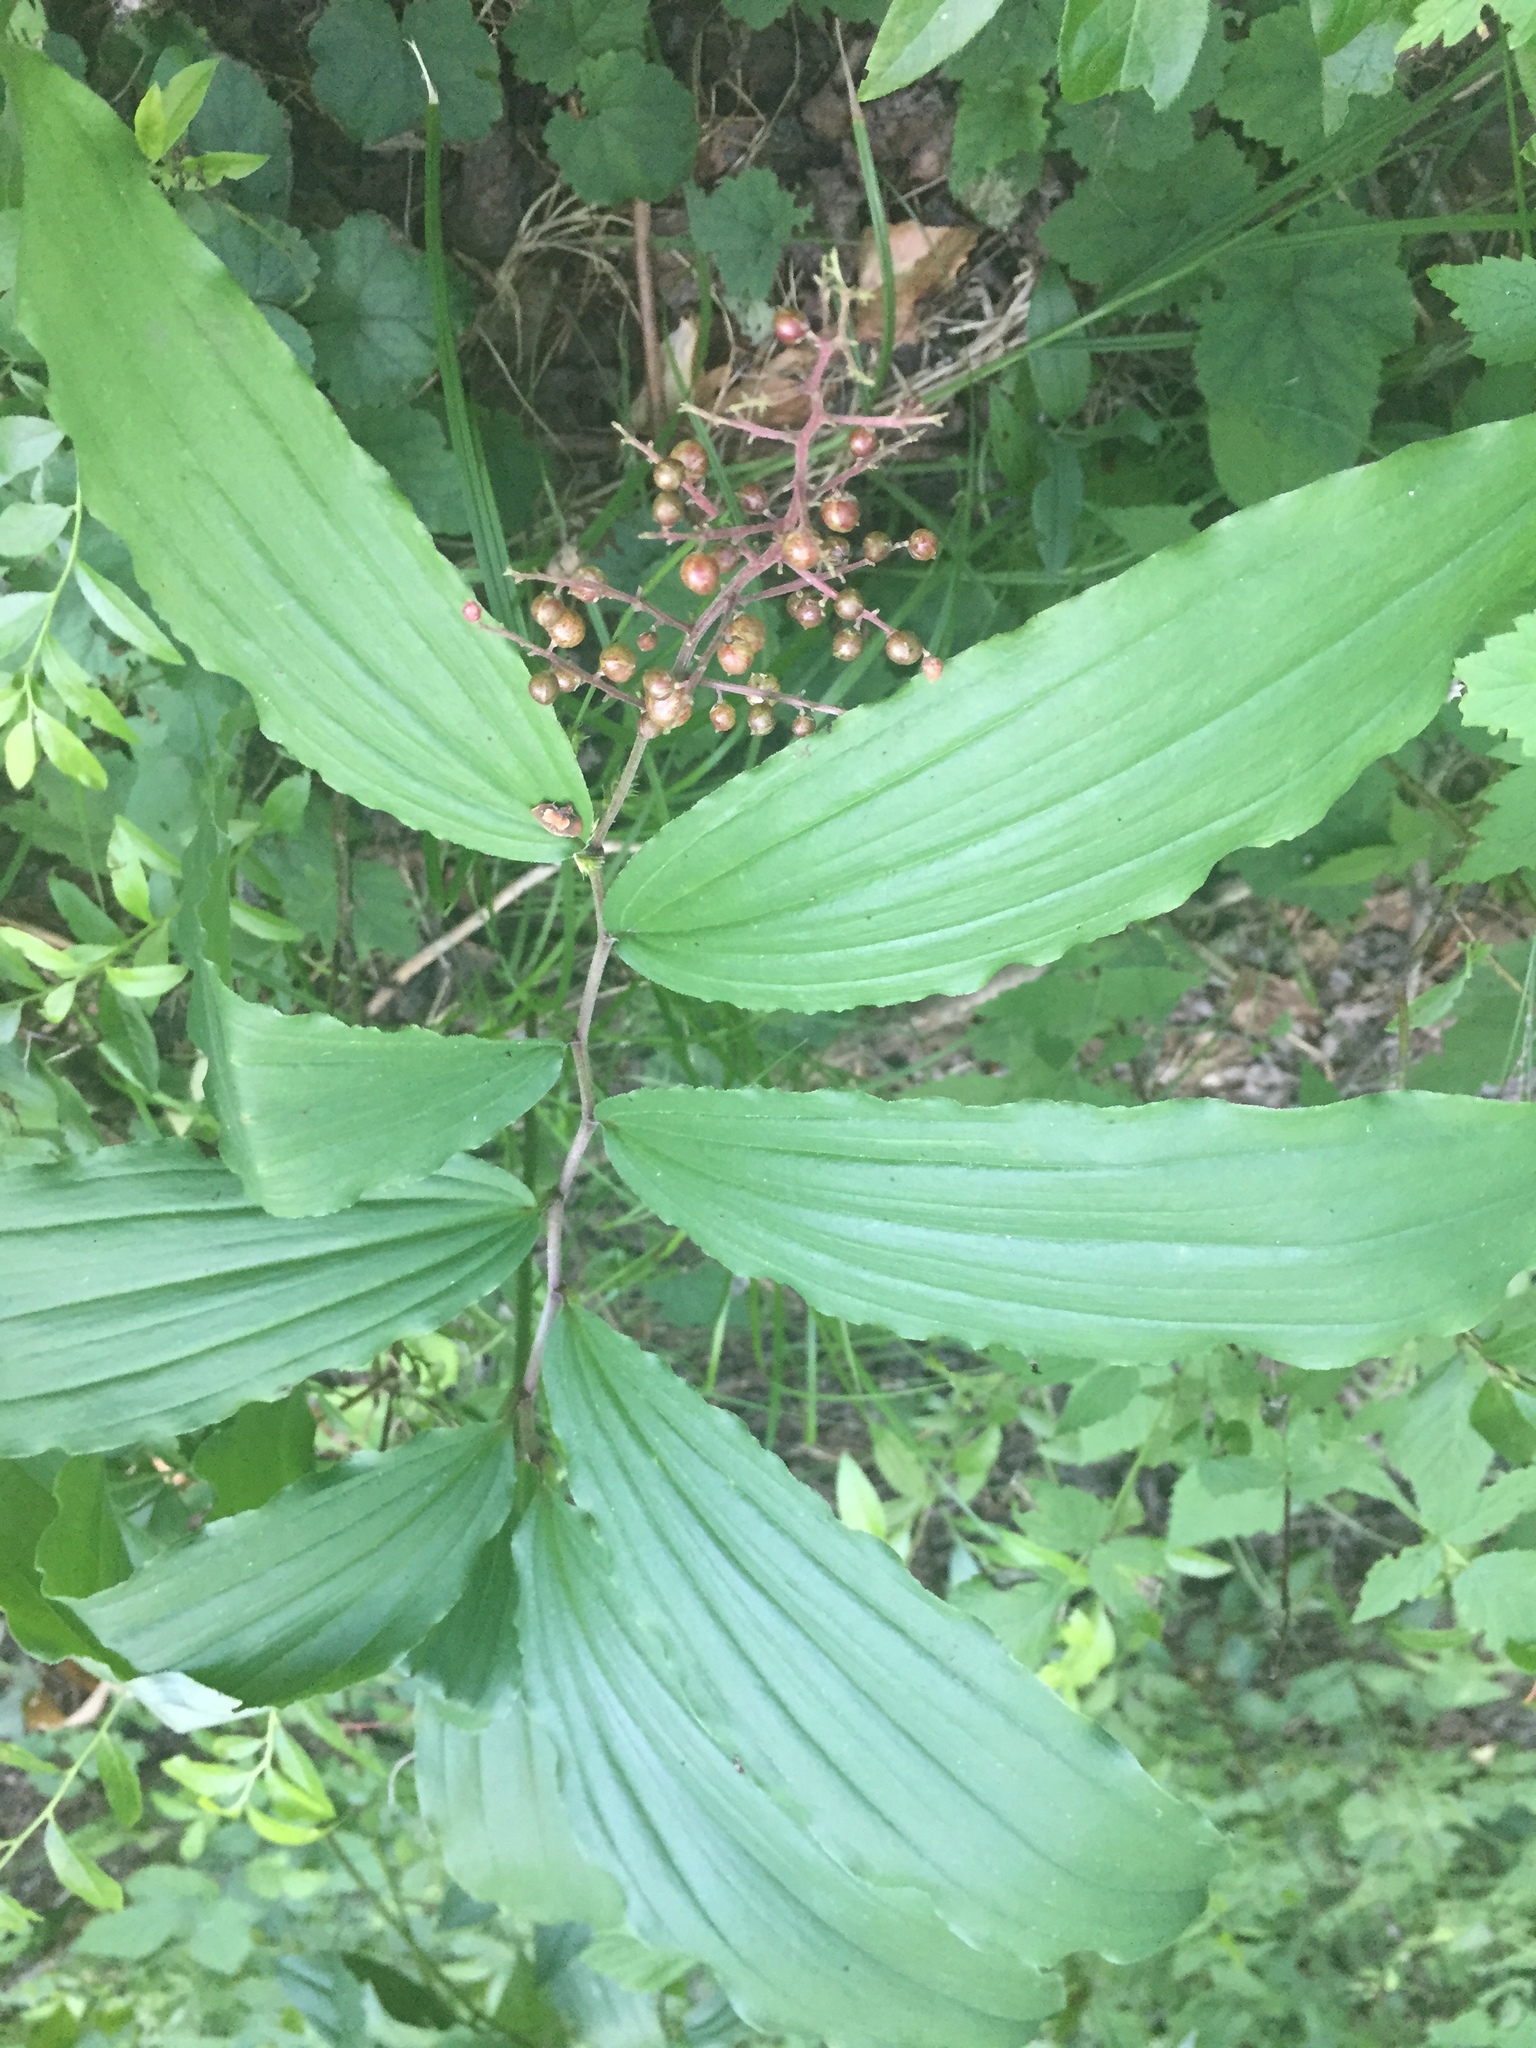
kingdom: Plantae
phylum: Tracheophyta
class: Liliopsida
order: Asparagales
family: Asparagaceae
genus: Maianthemum
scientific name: Maianthemum racemosum
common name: False spikenard
